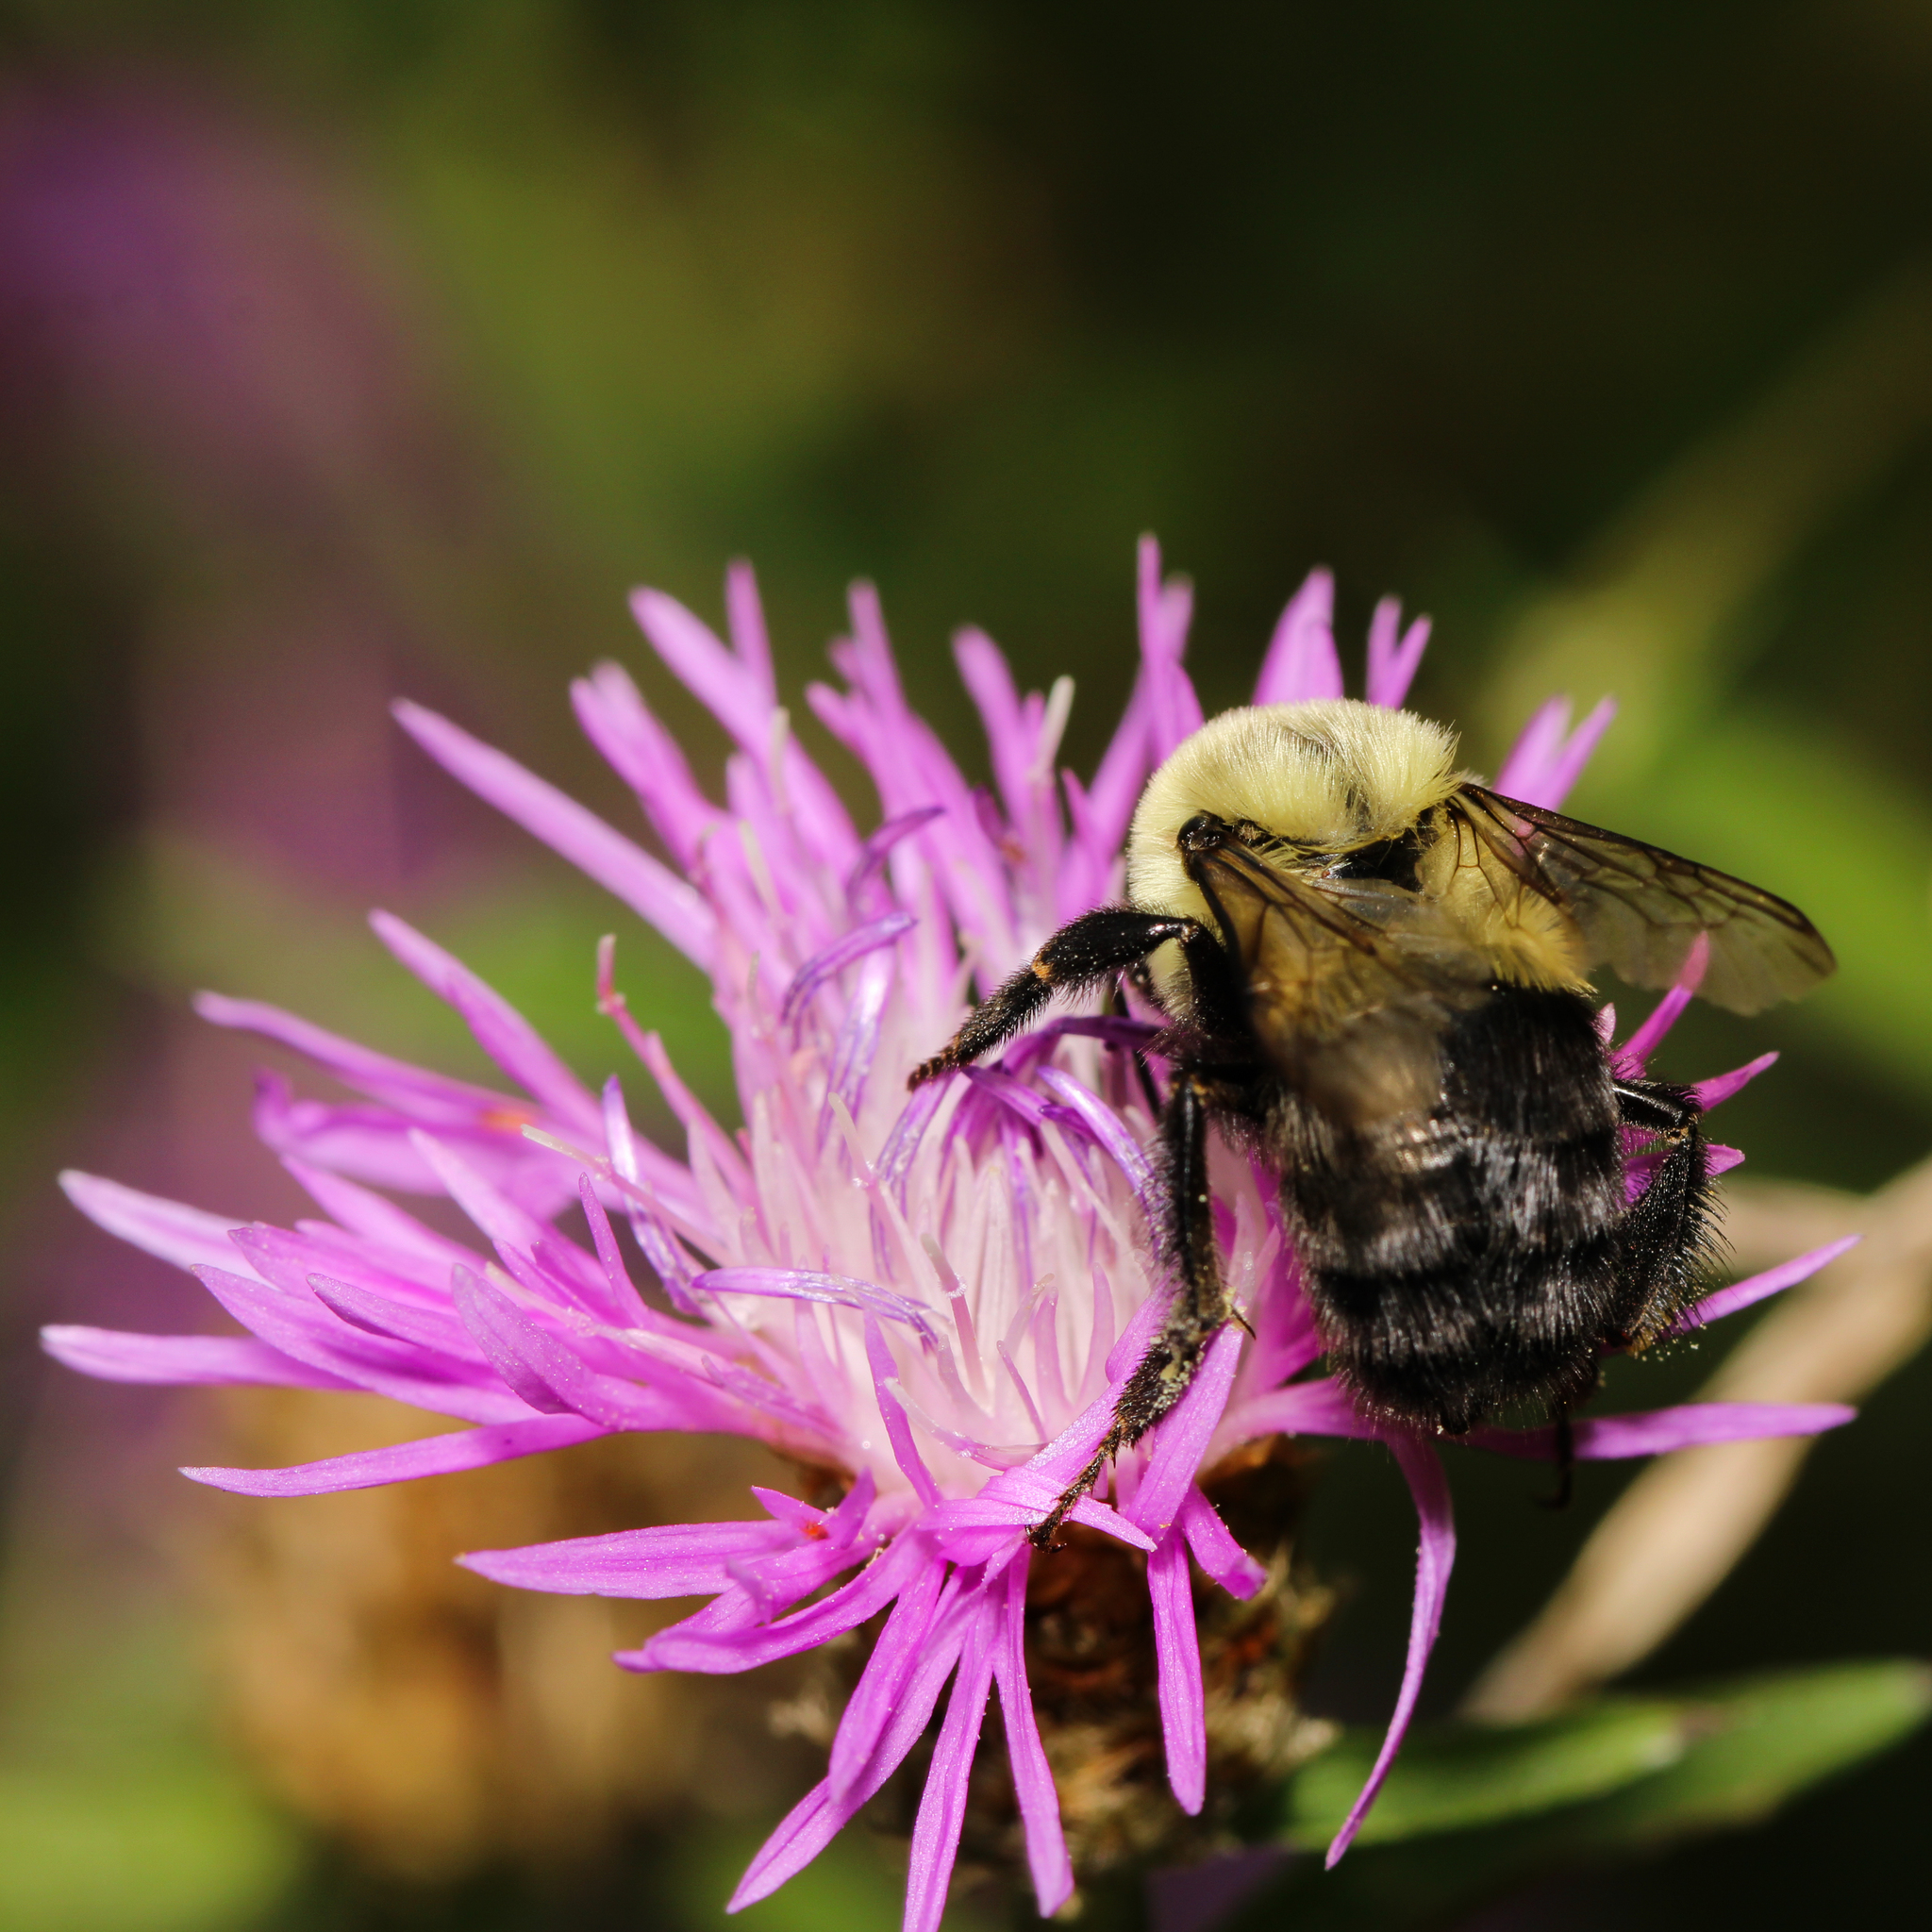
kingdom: Animalia
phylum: Arthropoda
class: Insecta
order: Hymenoptera
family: Apidae
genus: Bombus
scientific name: Bombus impatiens
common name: Common eastern bumble bee
